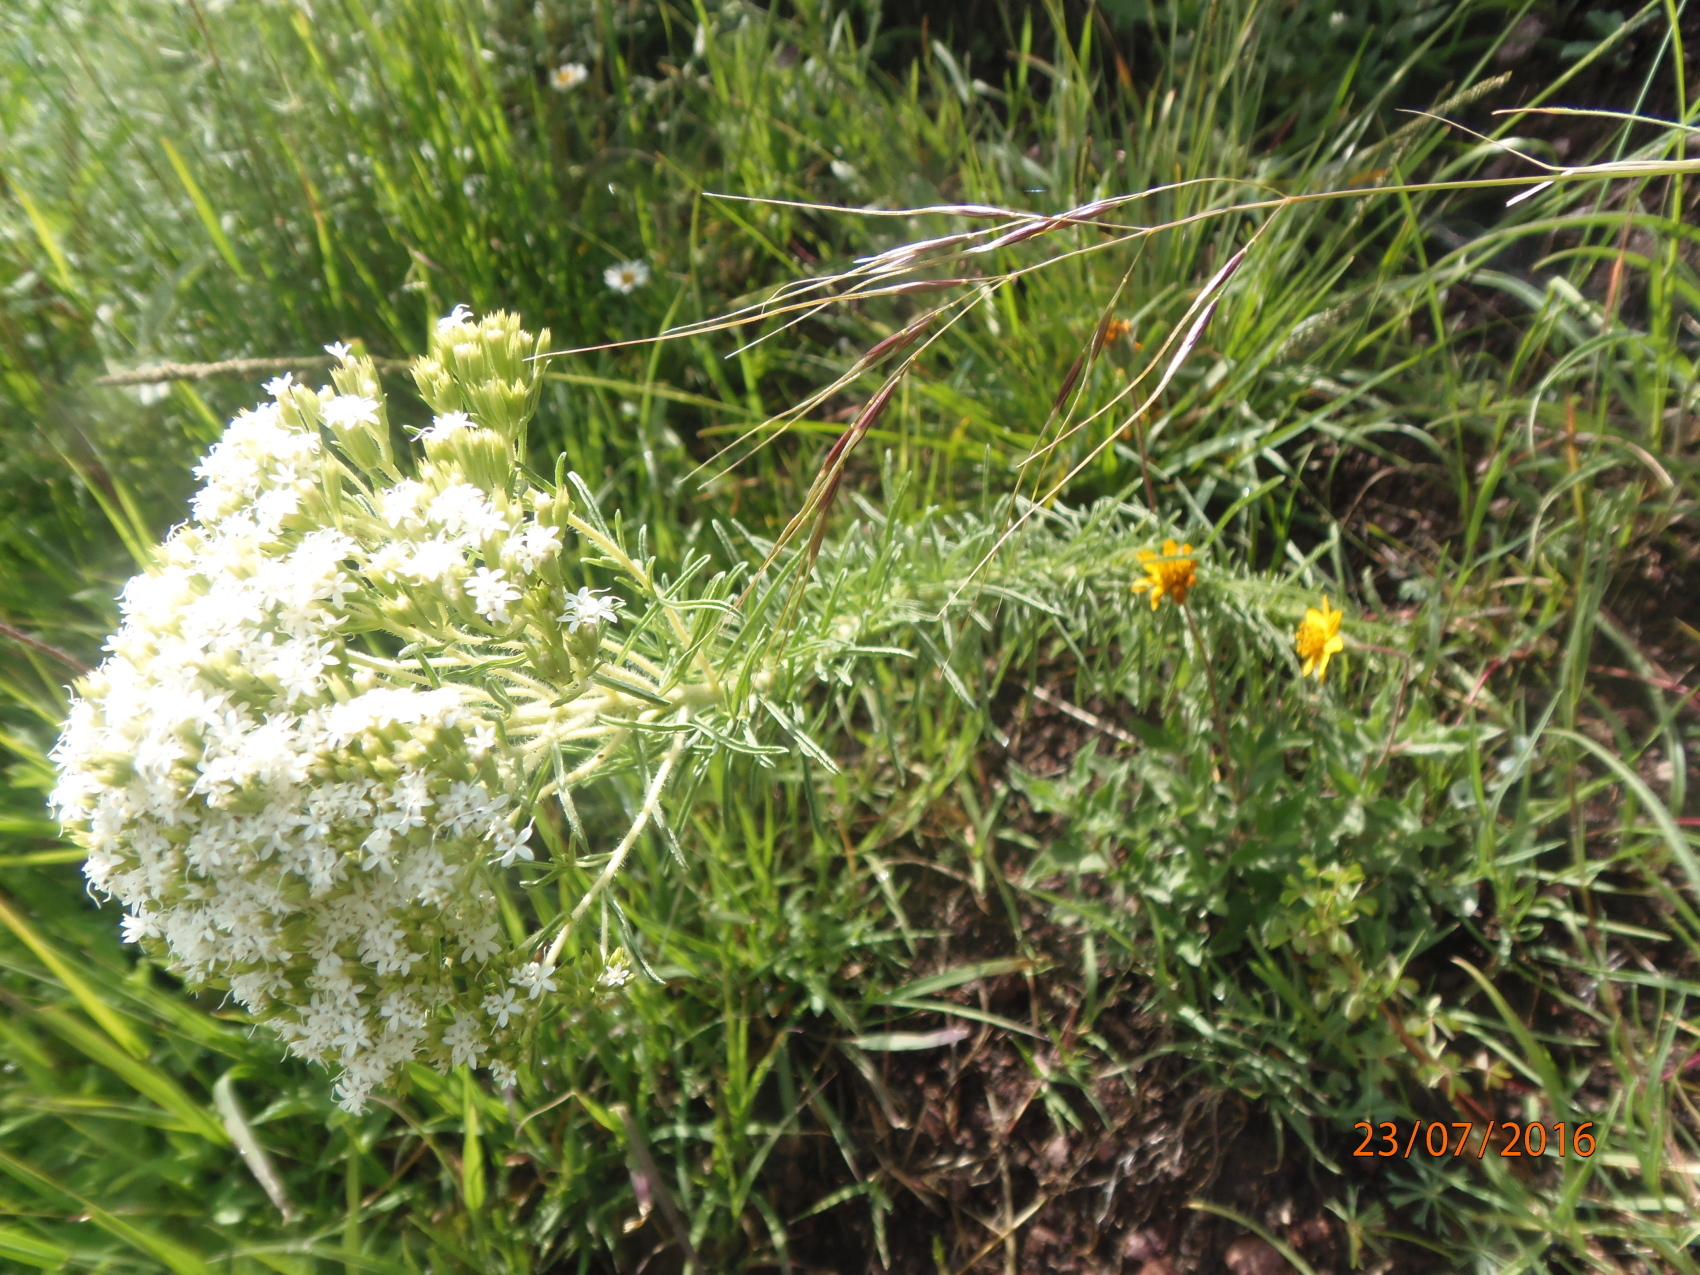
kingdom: Plantae
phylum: Tracheophyta
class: Magnoliopsida
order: Asterales
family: Asteraceae
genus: Stevia
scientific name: Stevia serrata
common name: Sawtooth candyleaf
